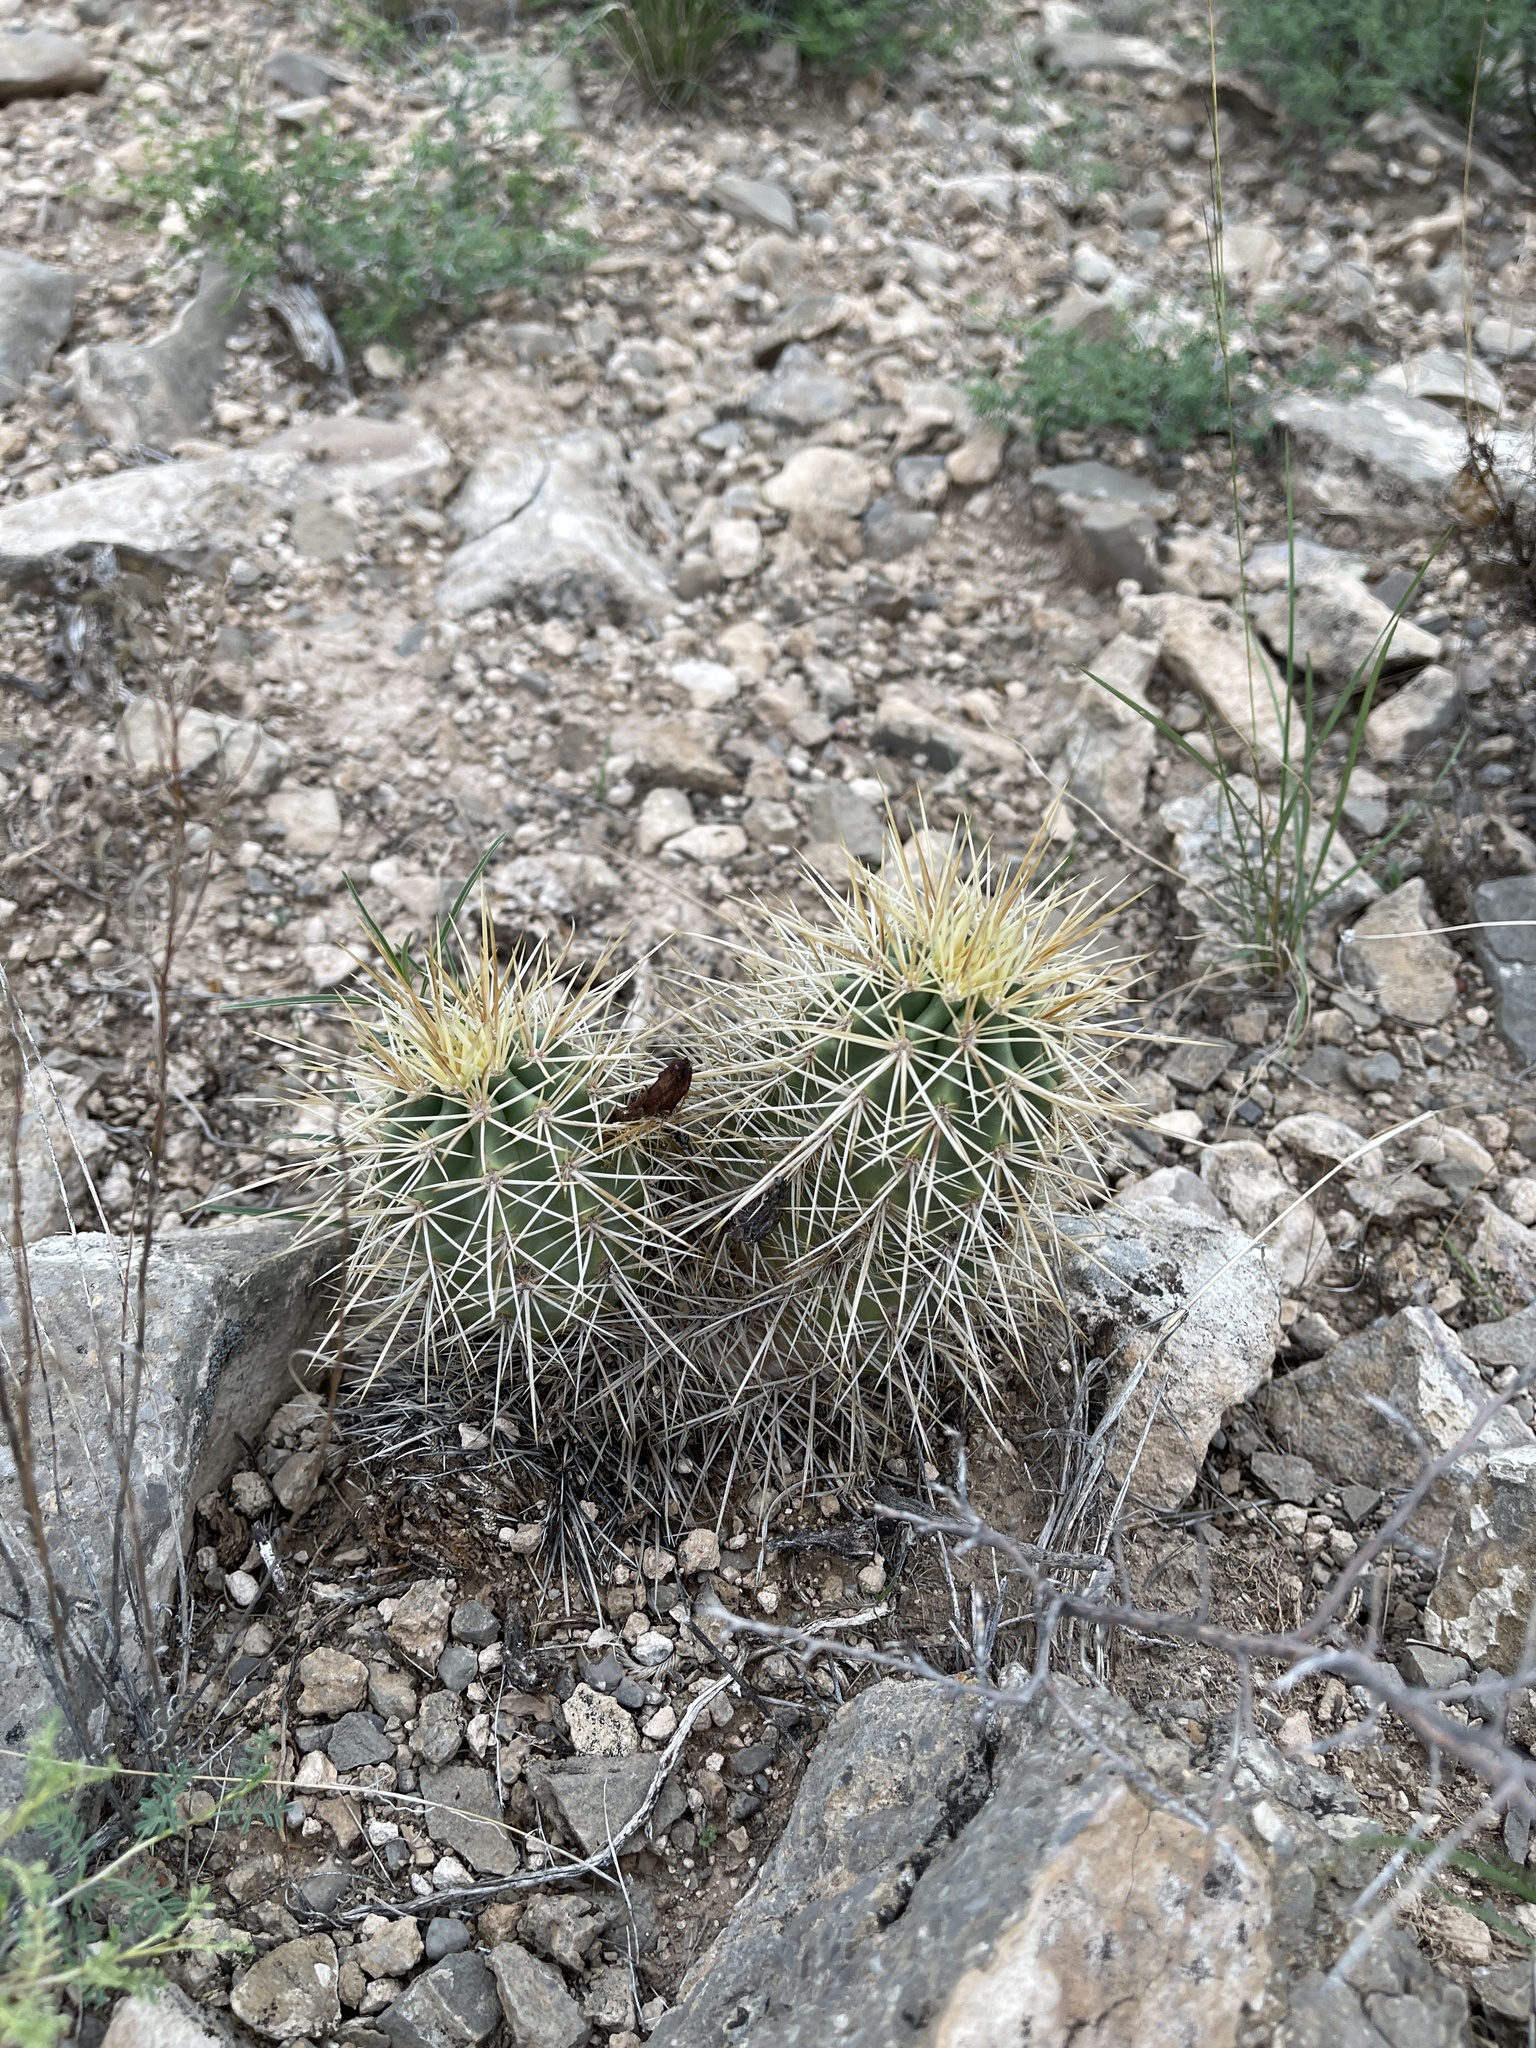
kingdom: Plantae
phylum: Tracheophyta
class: Magnoliopsida
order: Caryophyllales
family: Cactaceae
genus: Echinocereus
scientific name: Echinocereus coccineus
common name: Scarlet hedgehog cactus
